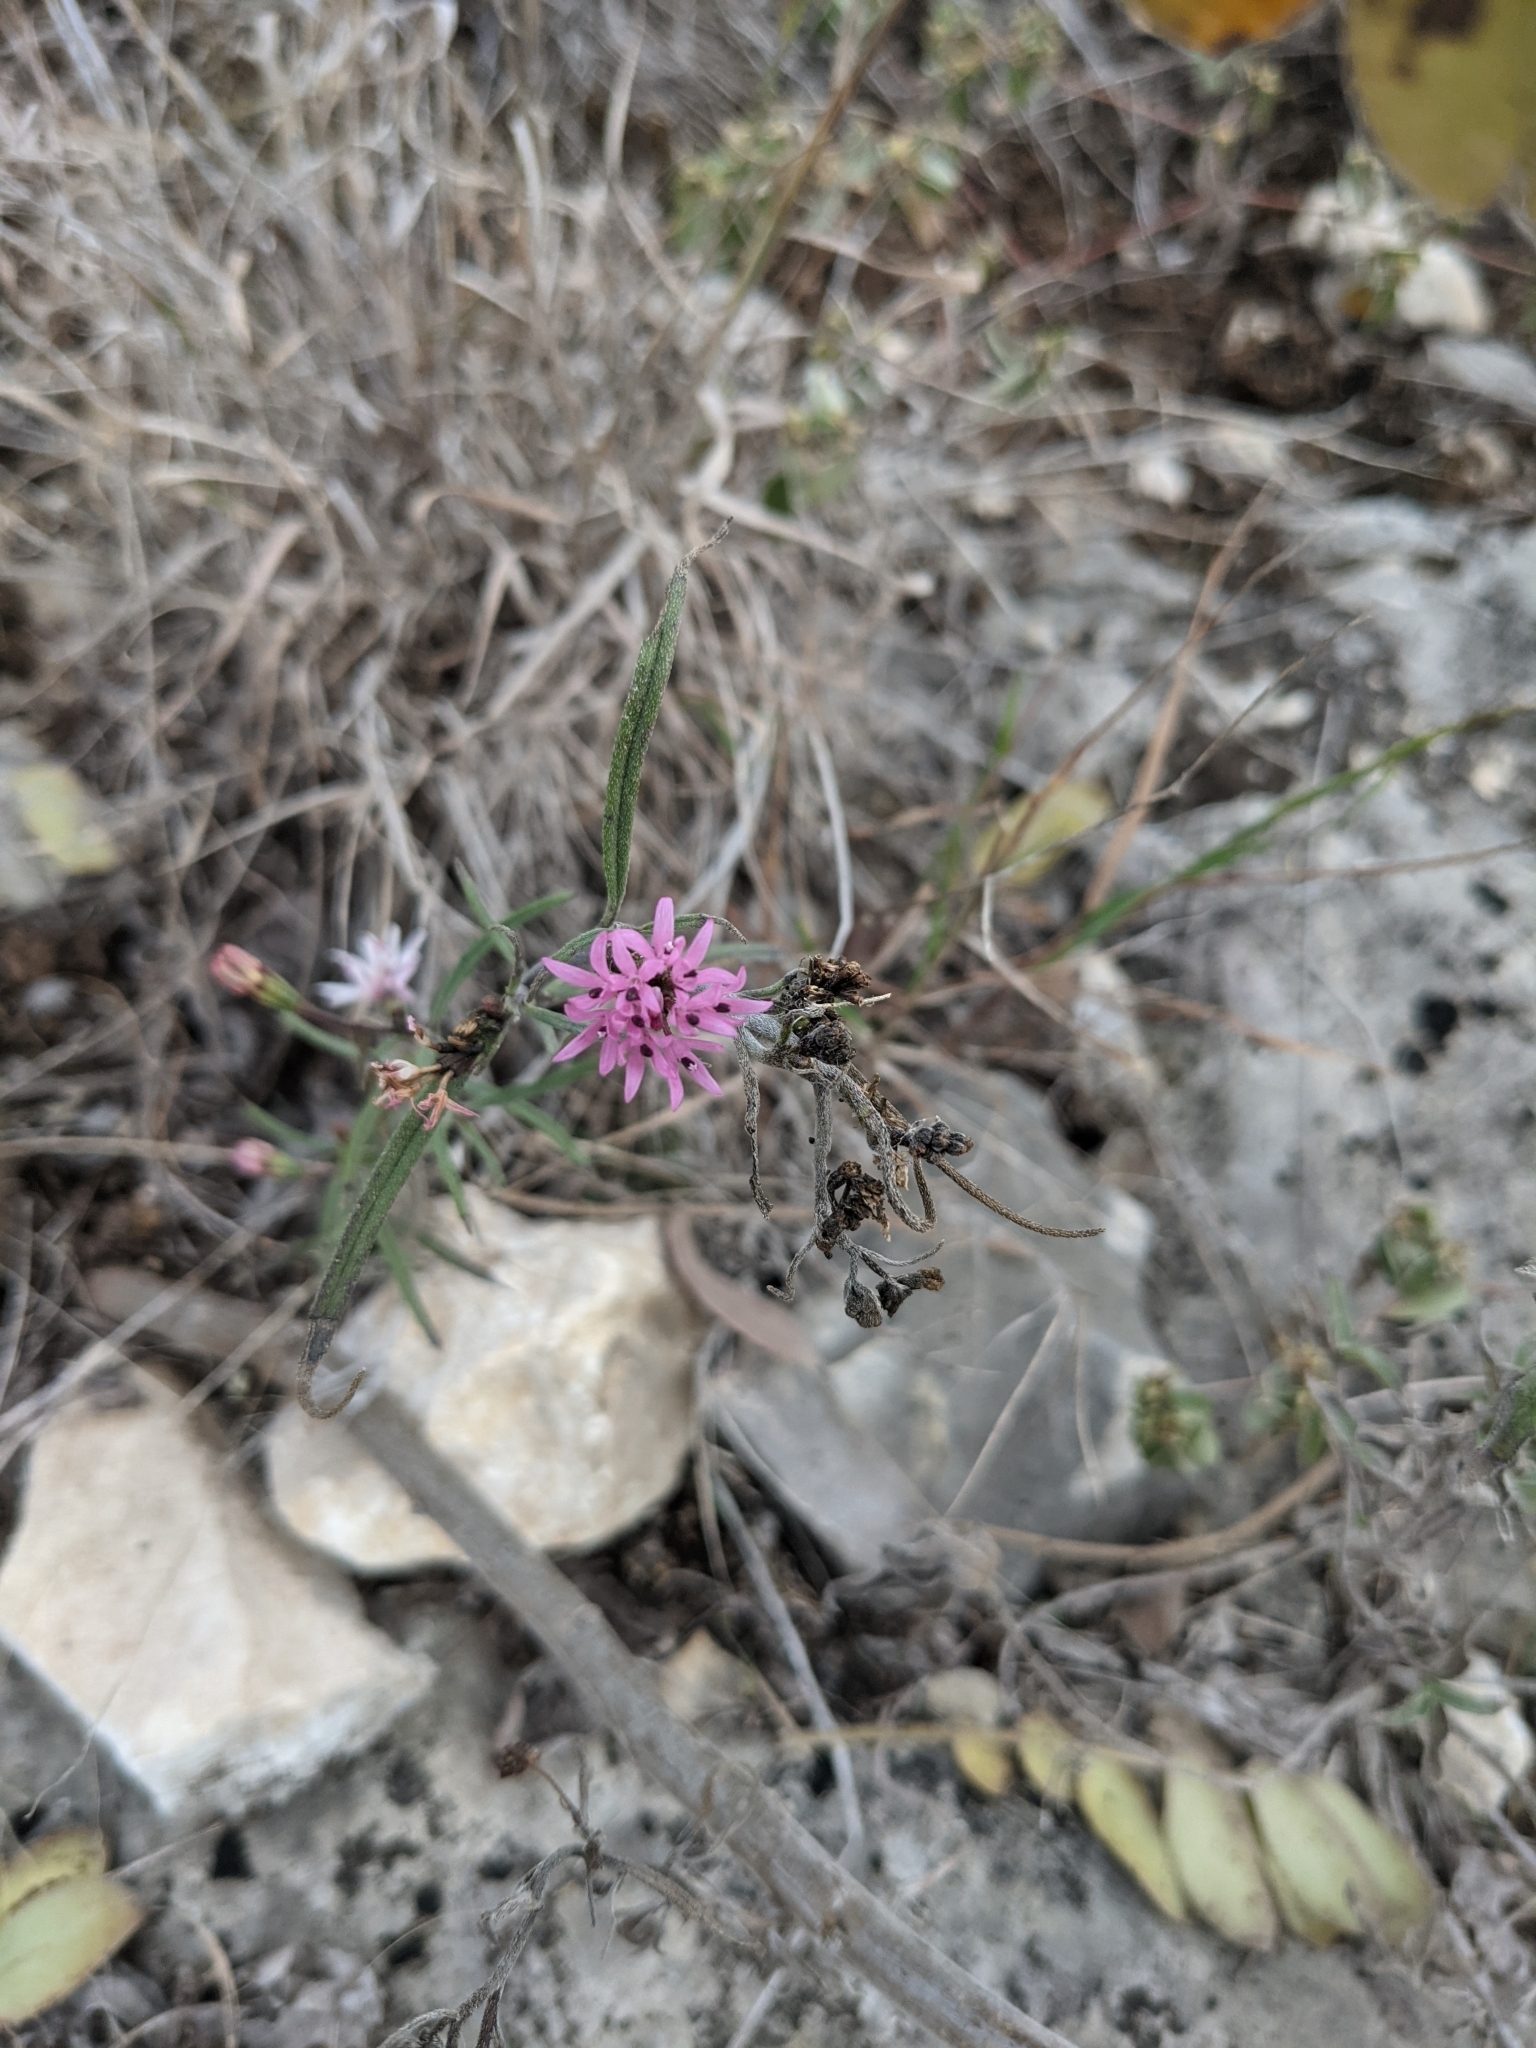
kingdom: Plantae
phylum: Tracheophyta
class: Magnoliopsida
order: Asterales
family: Asteraceae
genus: Palafoxia
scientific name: Palafoxia callosa
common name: Small palafox
